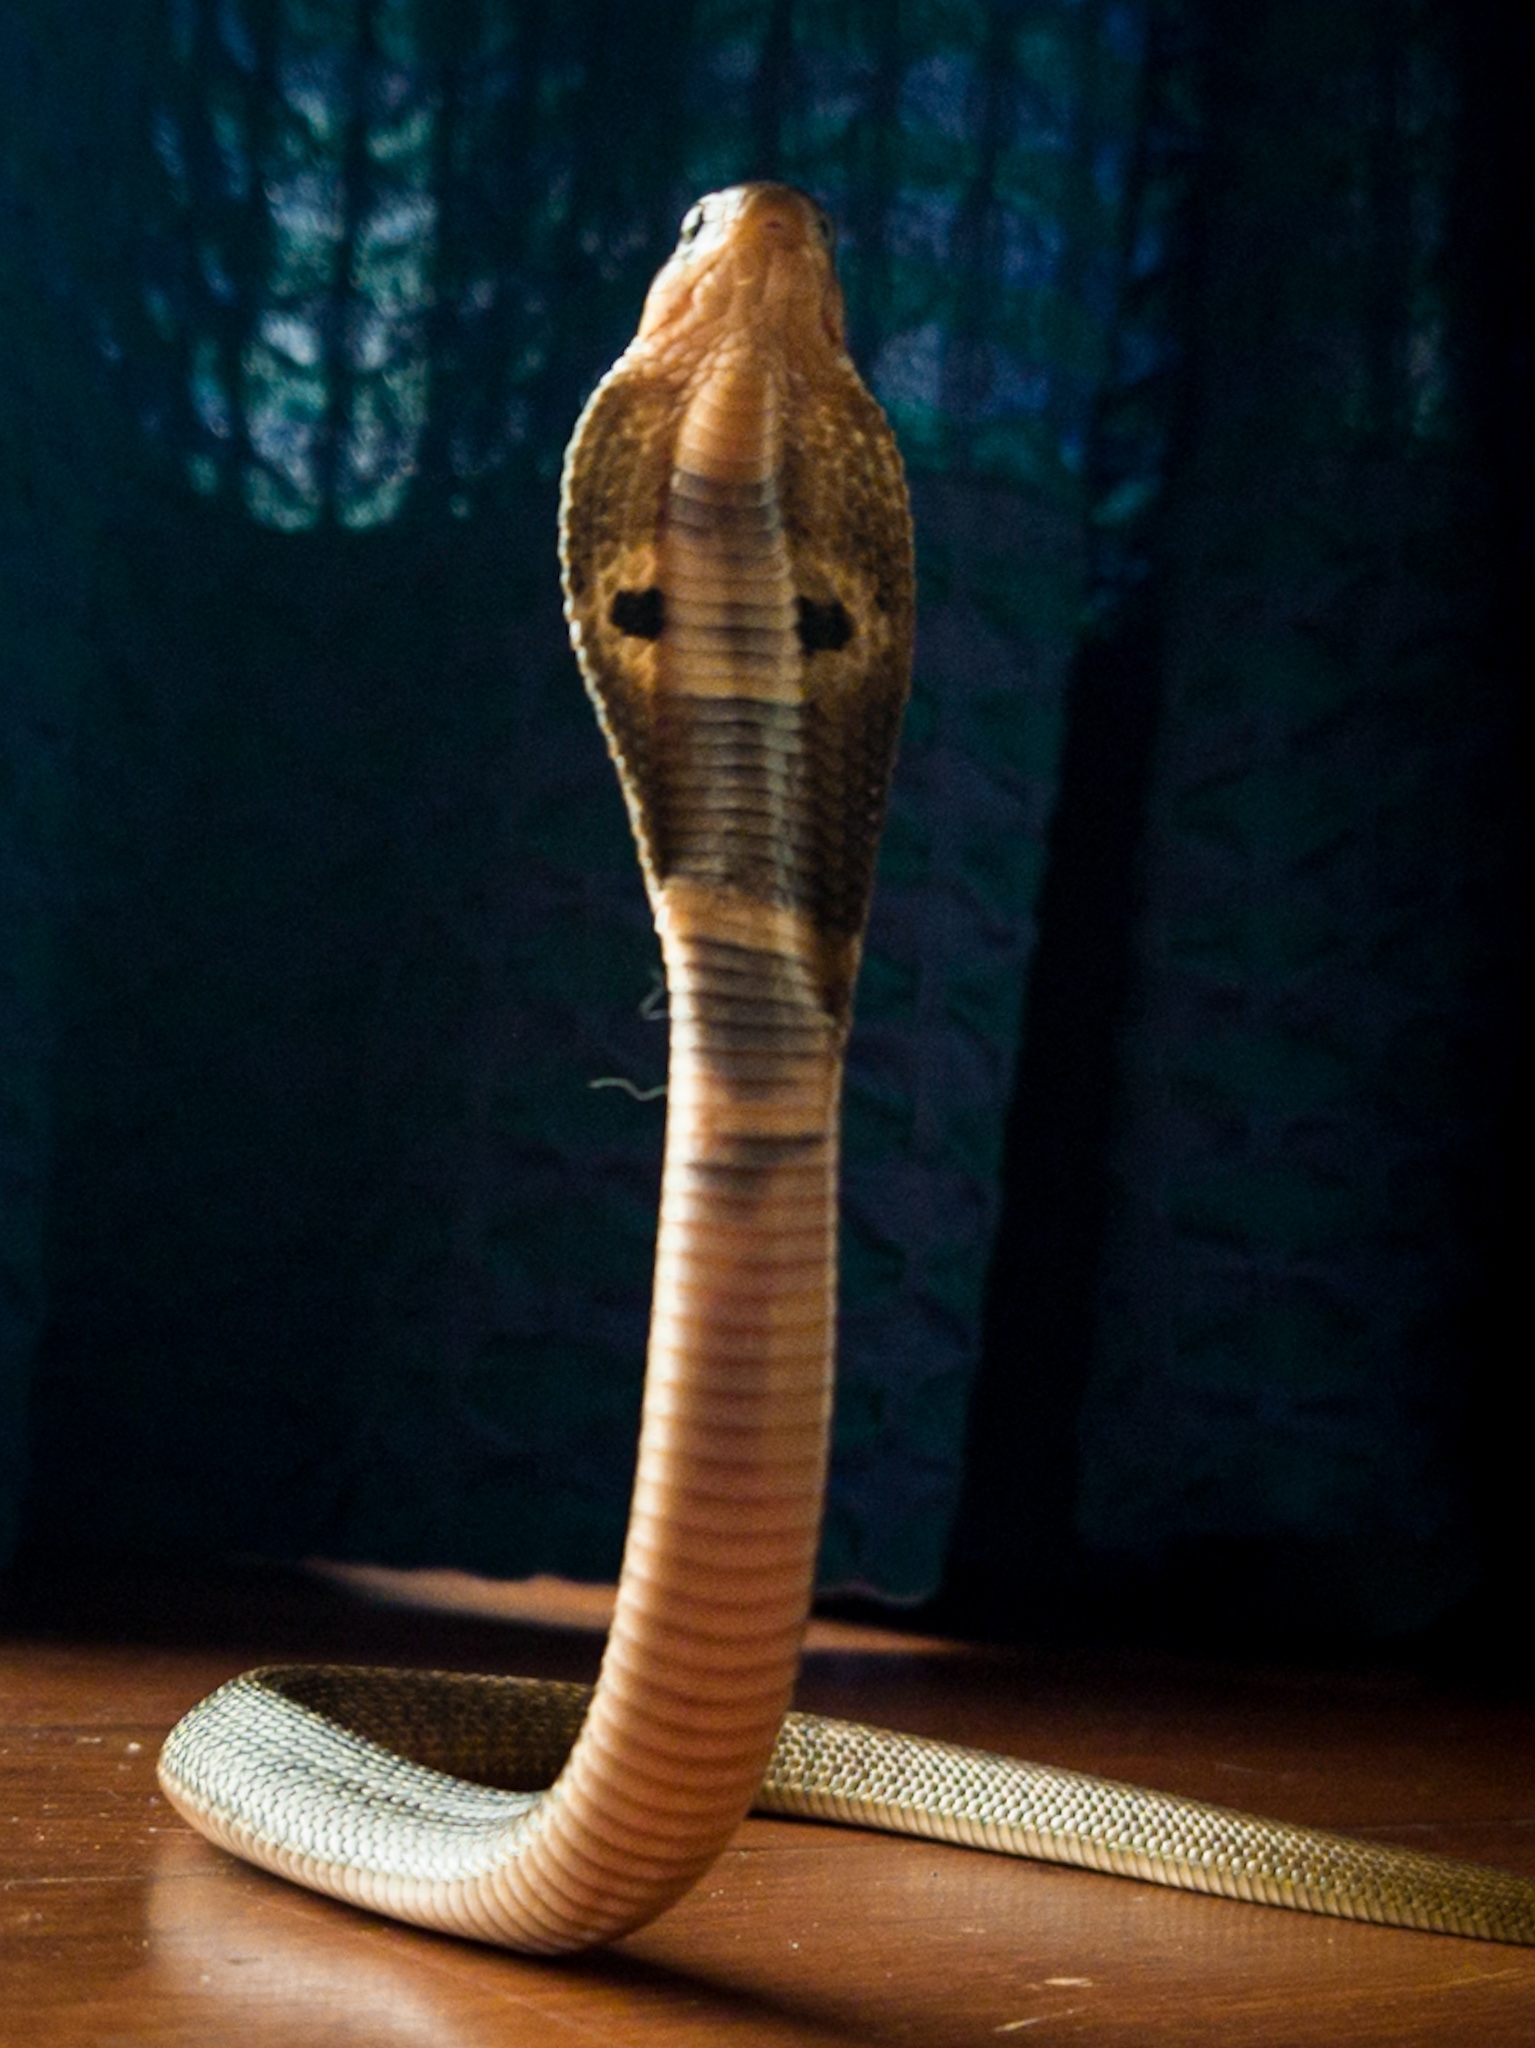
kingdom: Animalia
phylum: Chordata
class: Squamata
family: Elapidae
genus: Naja
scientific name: Naja naja
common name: Indian cobra
